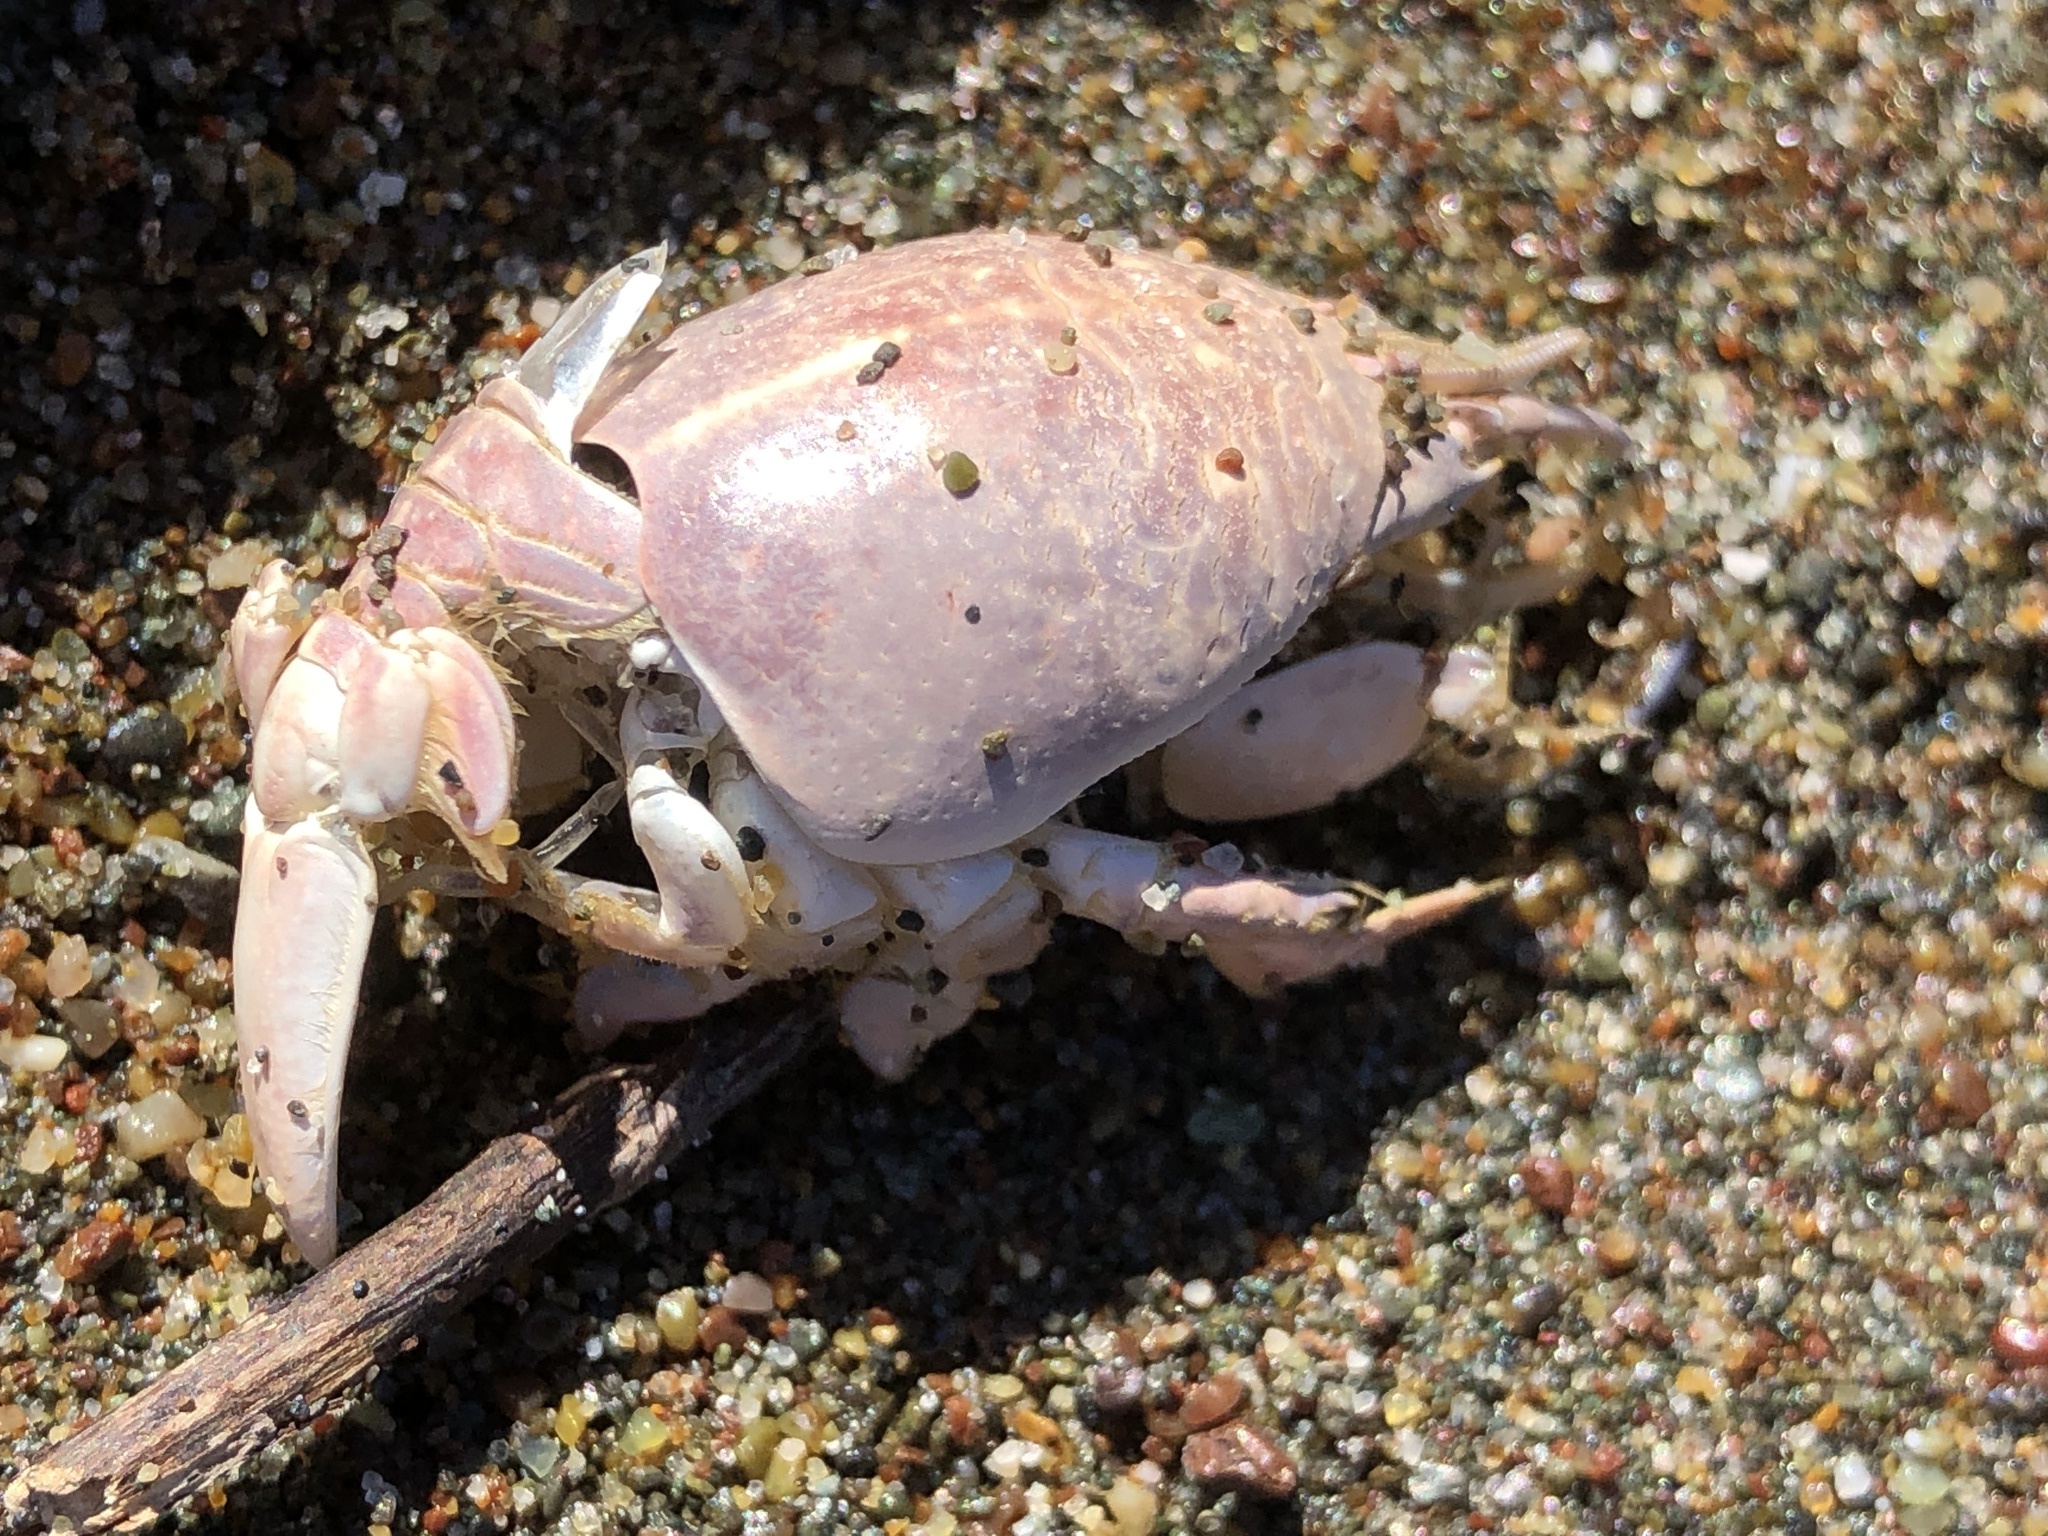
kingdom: Animalia
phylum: Arthropoda
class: Malacostraca
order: Decapoda
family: Hippidae
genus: Emerita
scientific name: Emerita analoga
